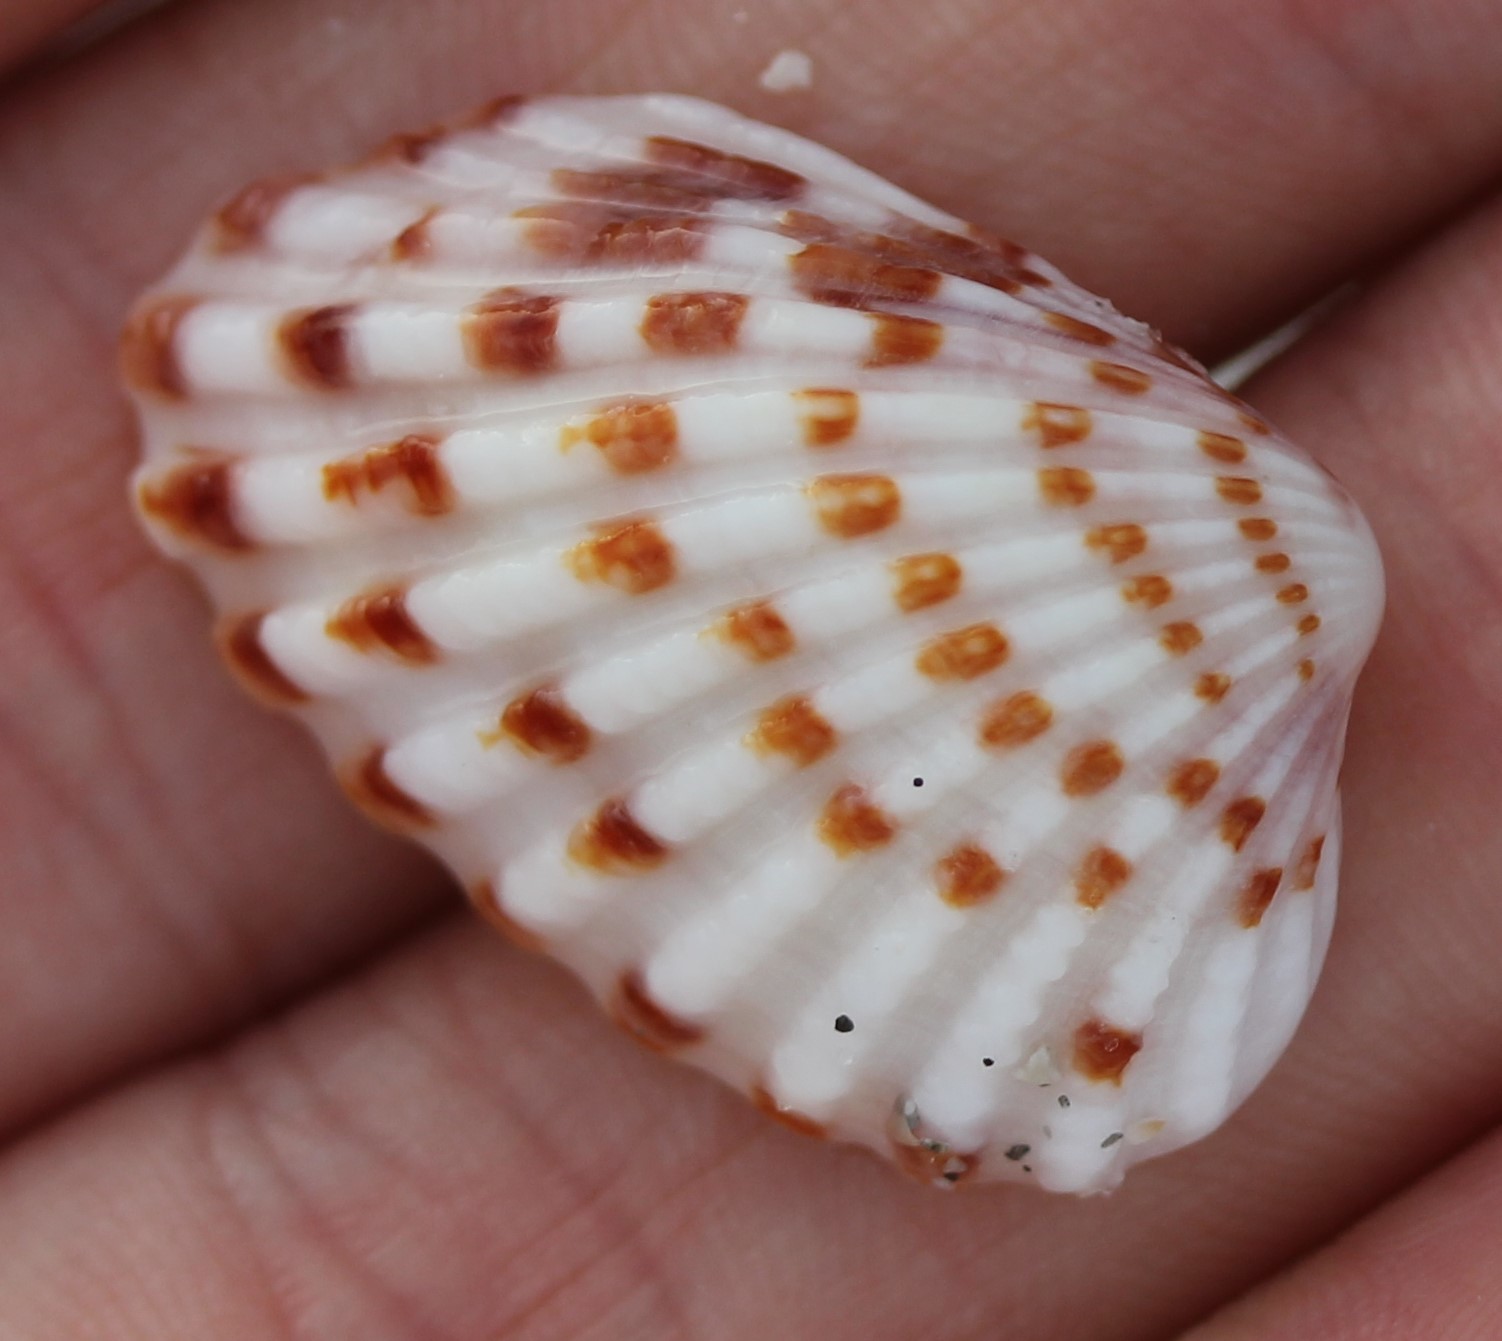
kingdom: Animalia
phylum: Mollusca
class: Bivalvia
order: Carditida
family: Carditidae
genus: Cardites
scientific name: Cardites floridanus
